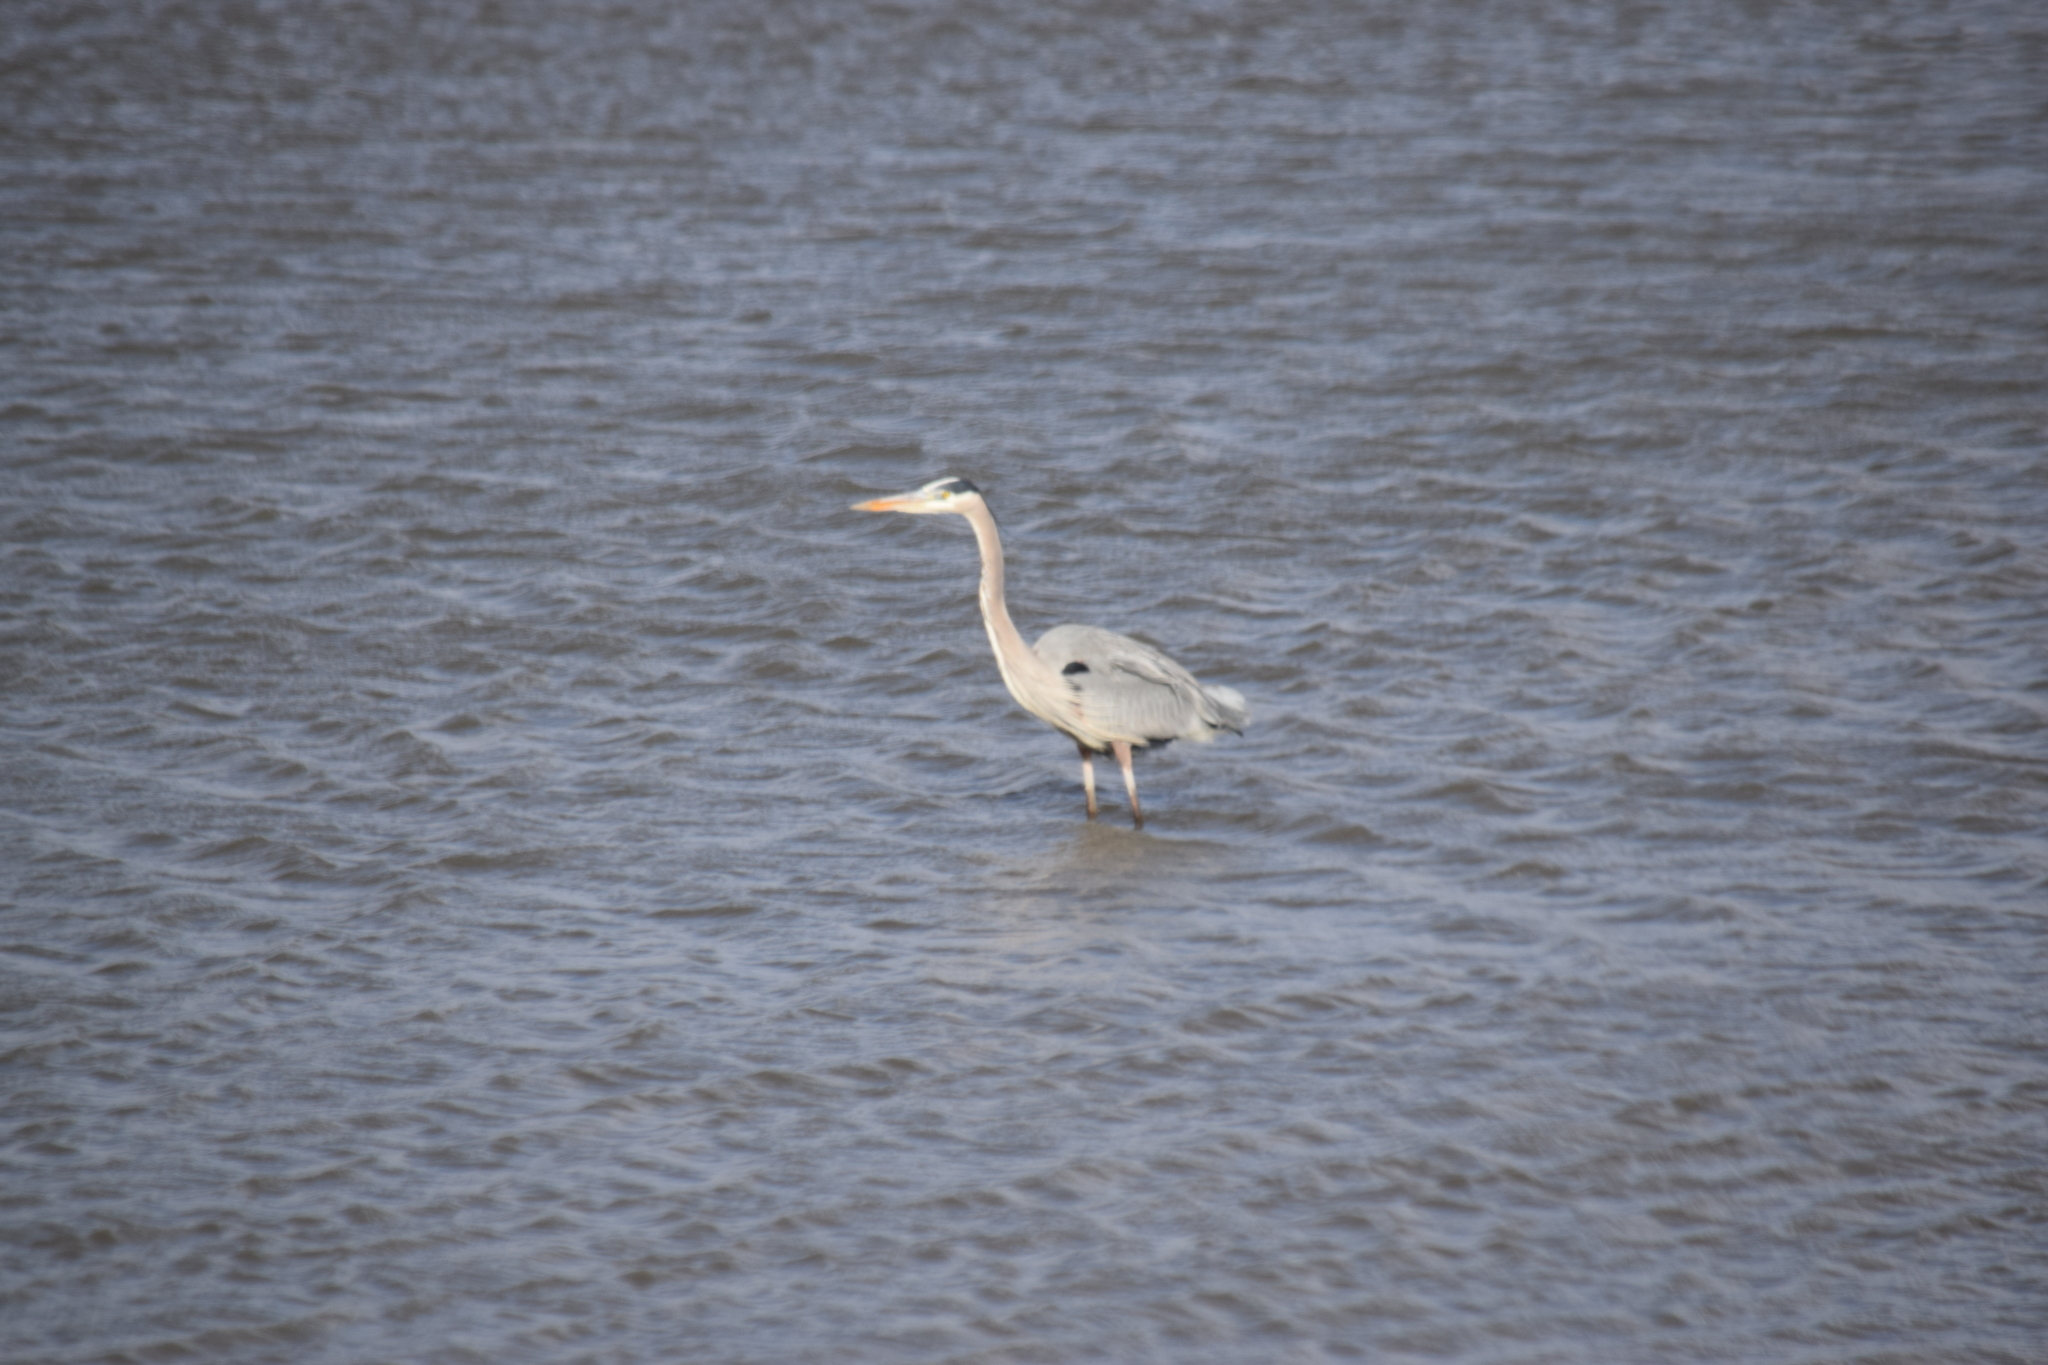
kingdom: Animalia
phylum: Chordata
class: Aves
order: Pelecaniformes
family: Ardeidae
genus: Ardea
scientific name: Ardea herodias
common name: Great blue heron
